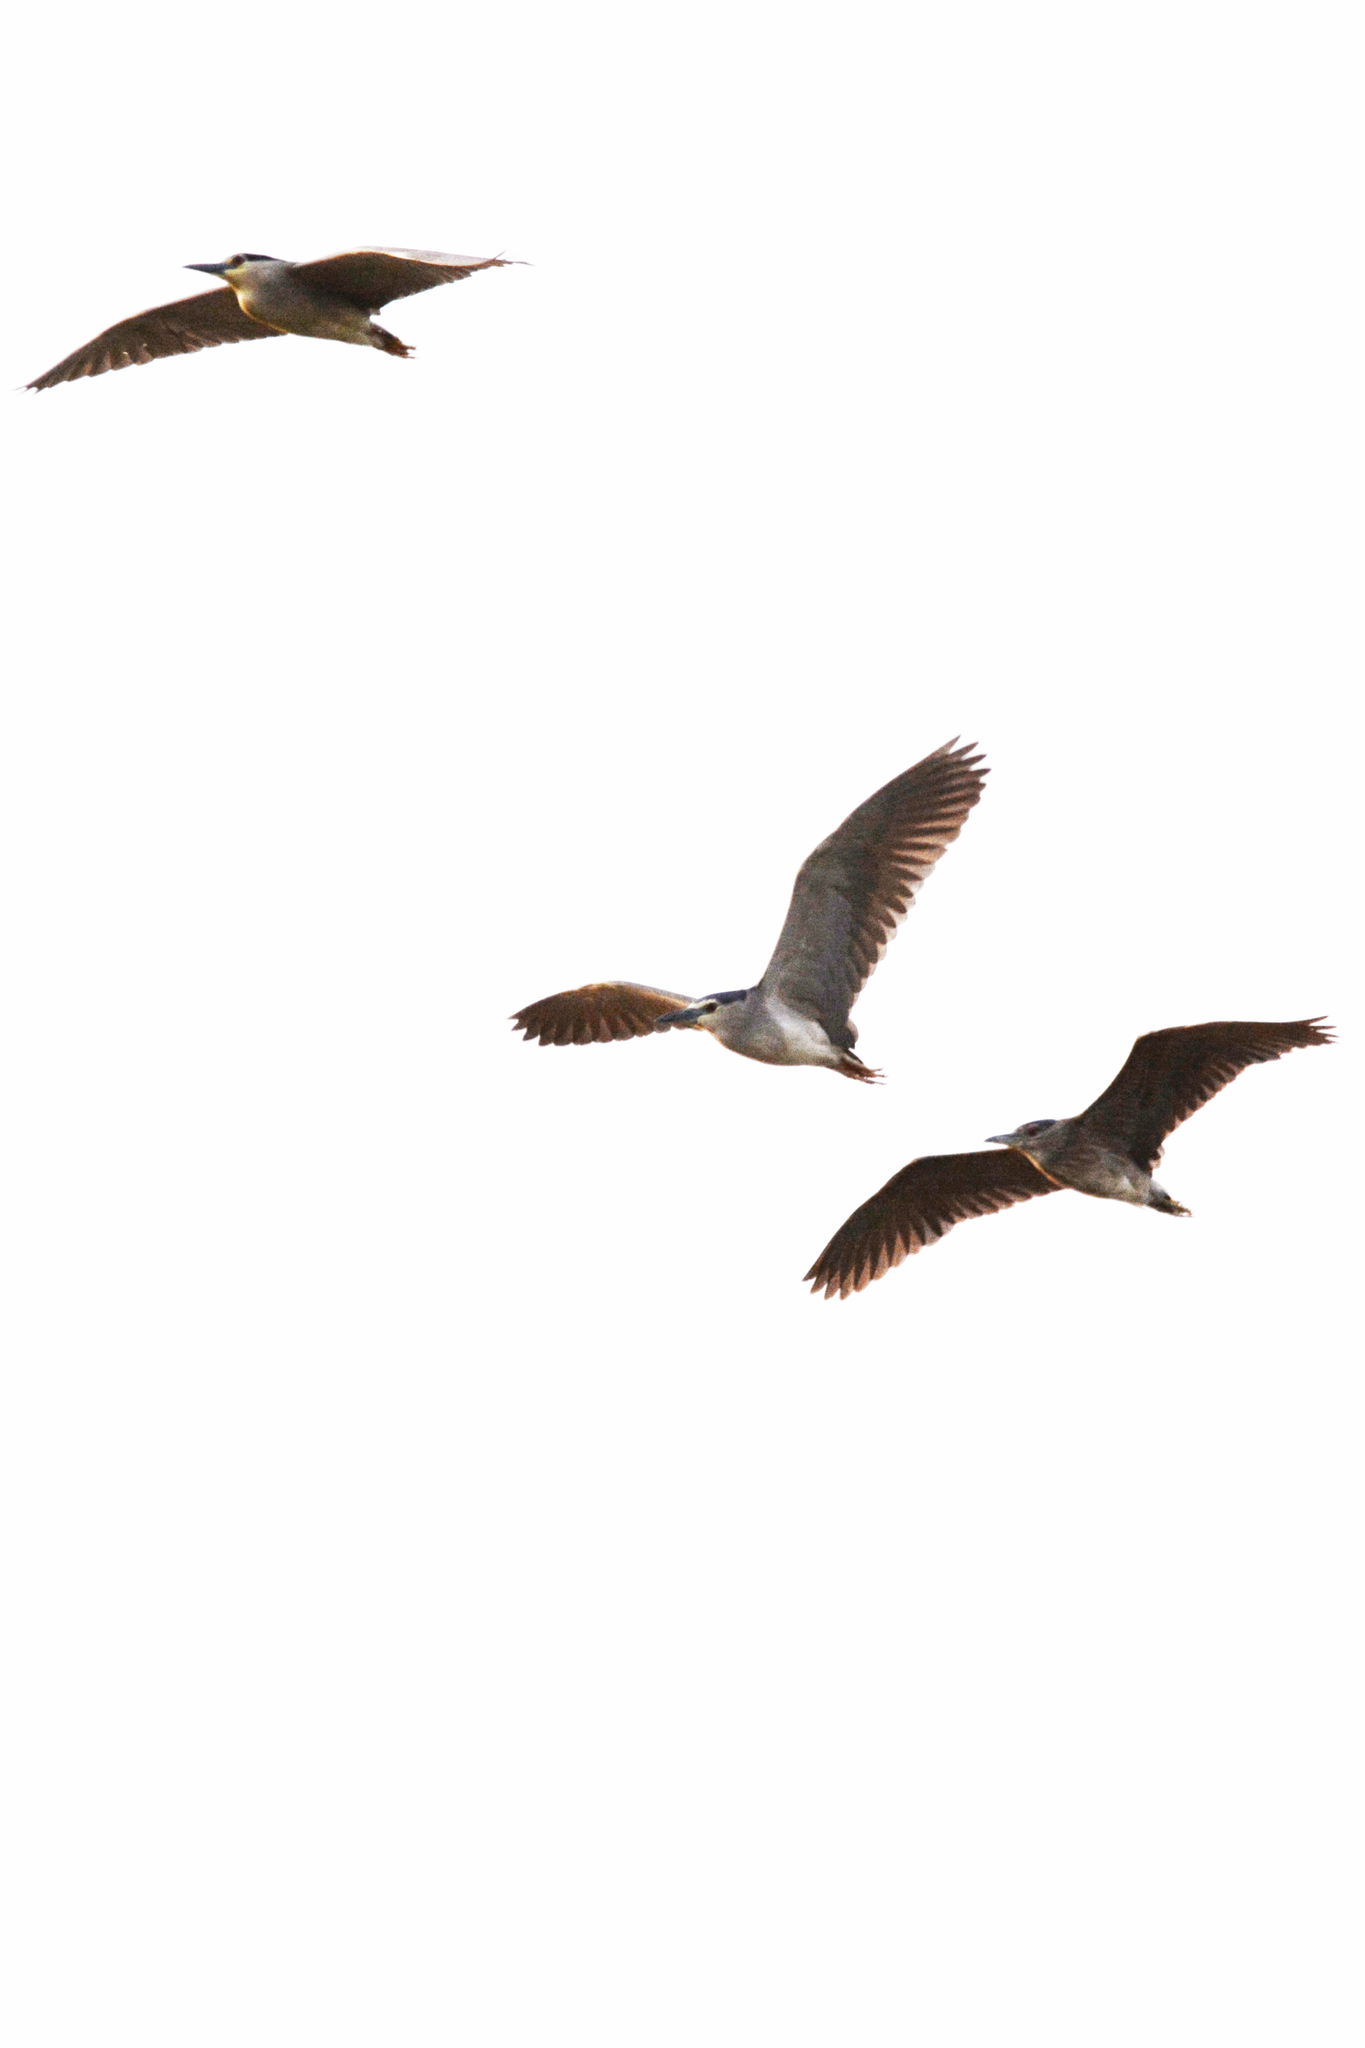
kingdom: Animalia
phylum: Chordata
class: Aves
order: Pelecaniformes
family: Ardeidae
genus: Nycticorax
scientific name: Nycticorax nycticorax
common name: Black-crowned night heron
